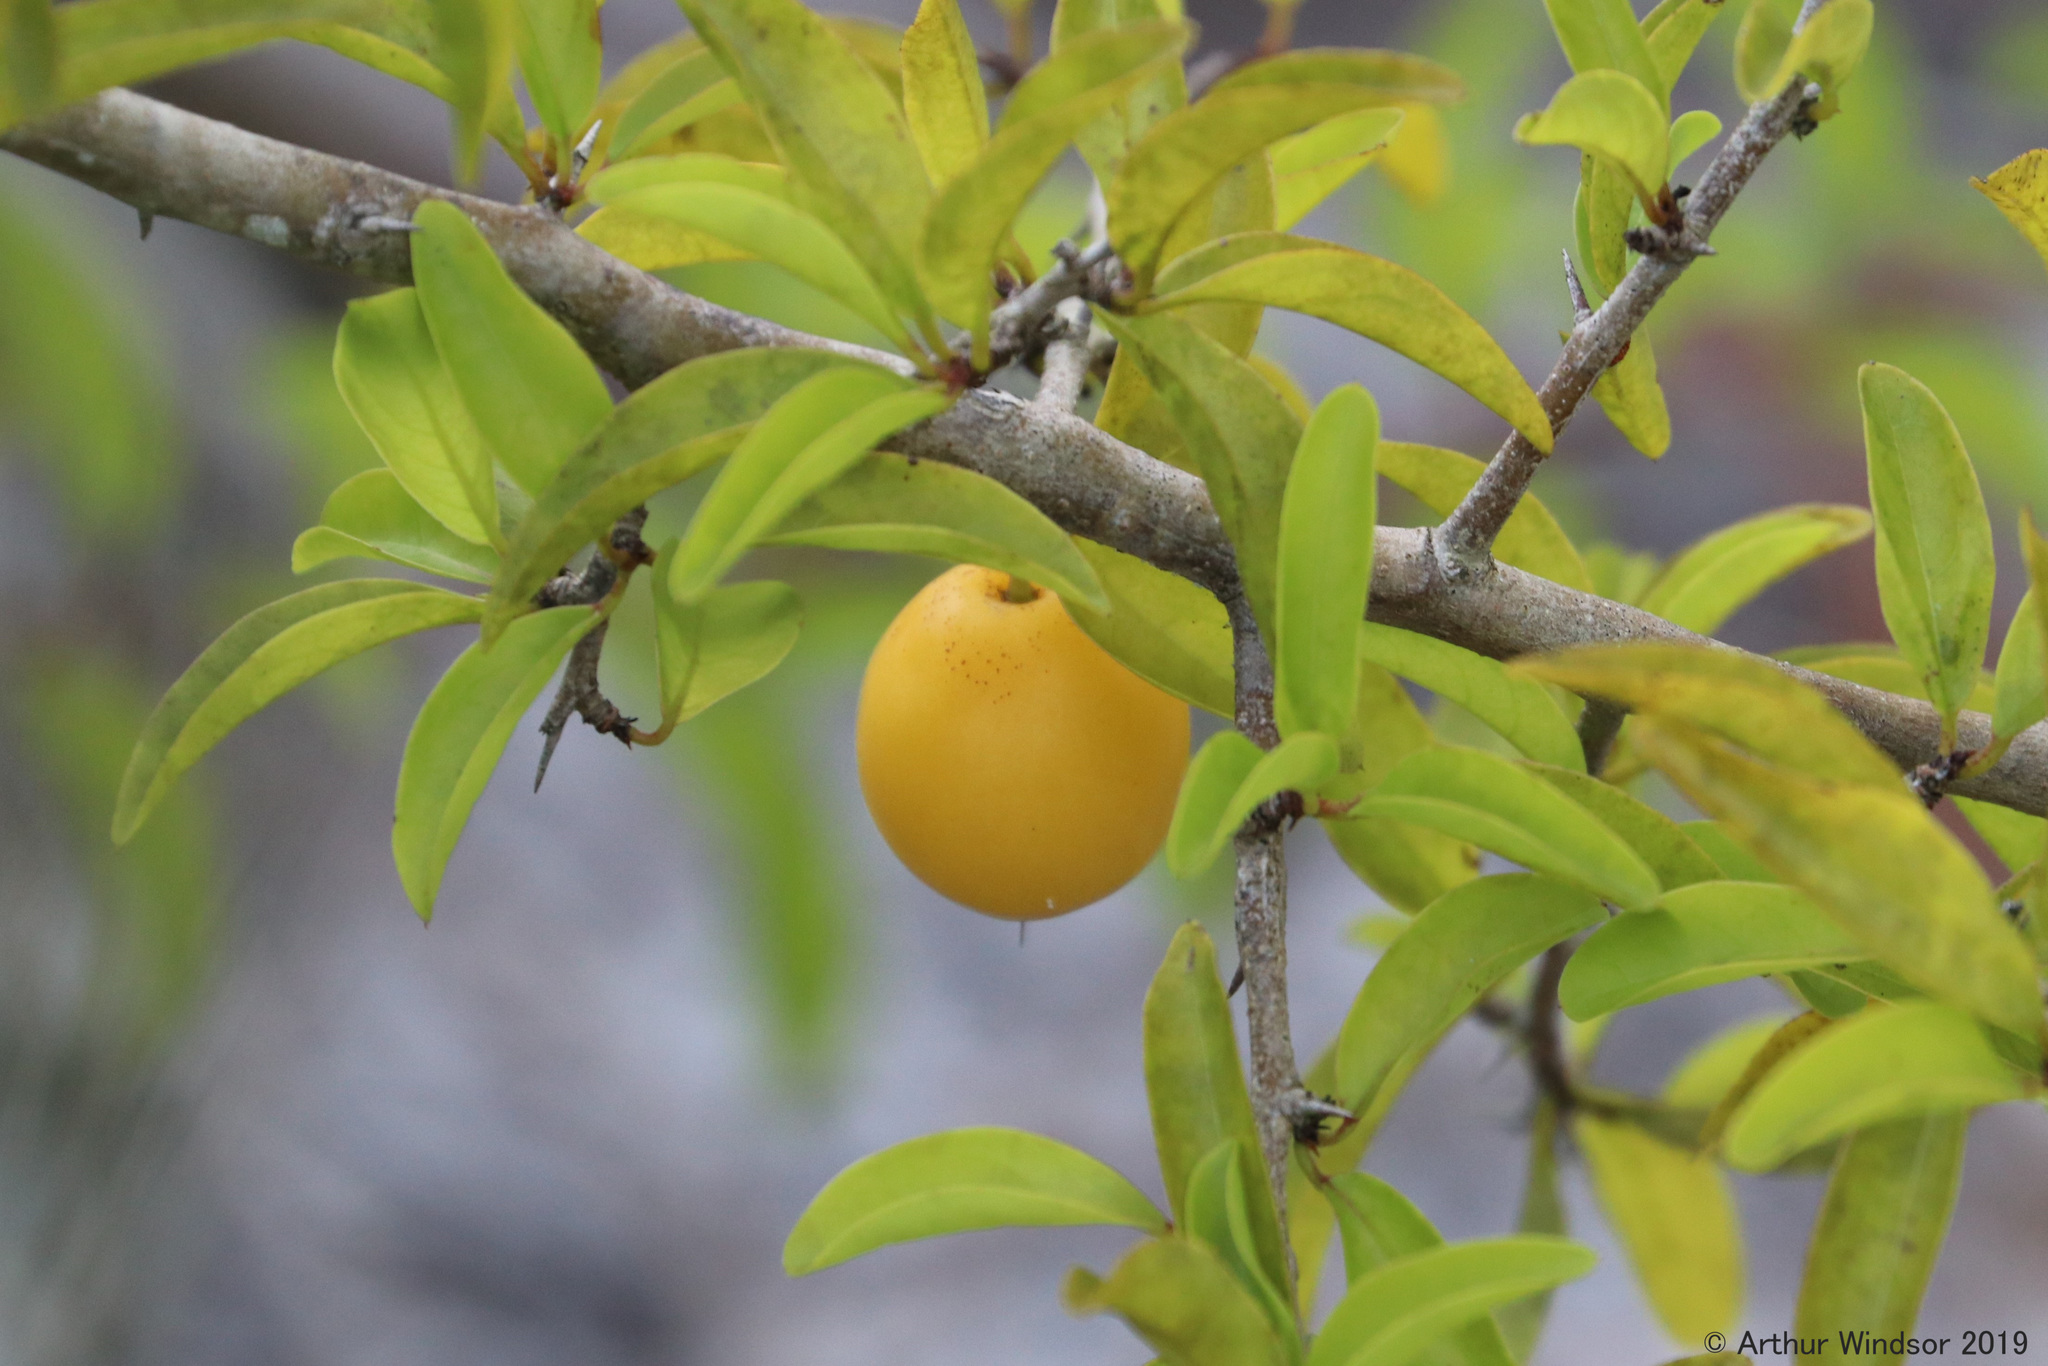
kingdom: Plantae
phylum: Tracheophyta
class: Magnoliopsida
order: Santalales
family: Ximeniaceae
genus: Ximenia
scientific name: Ximenia americana
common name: Tallowwood
